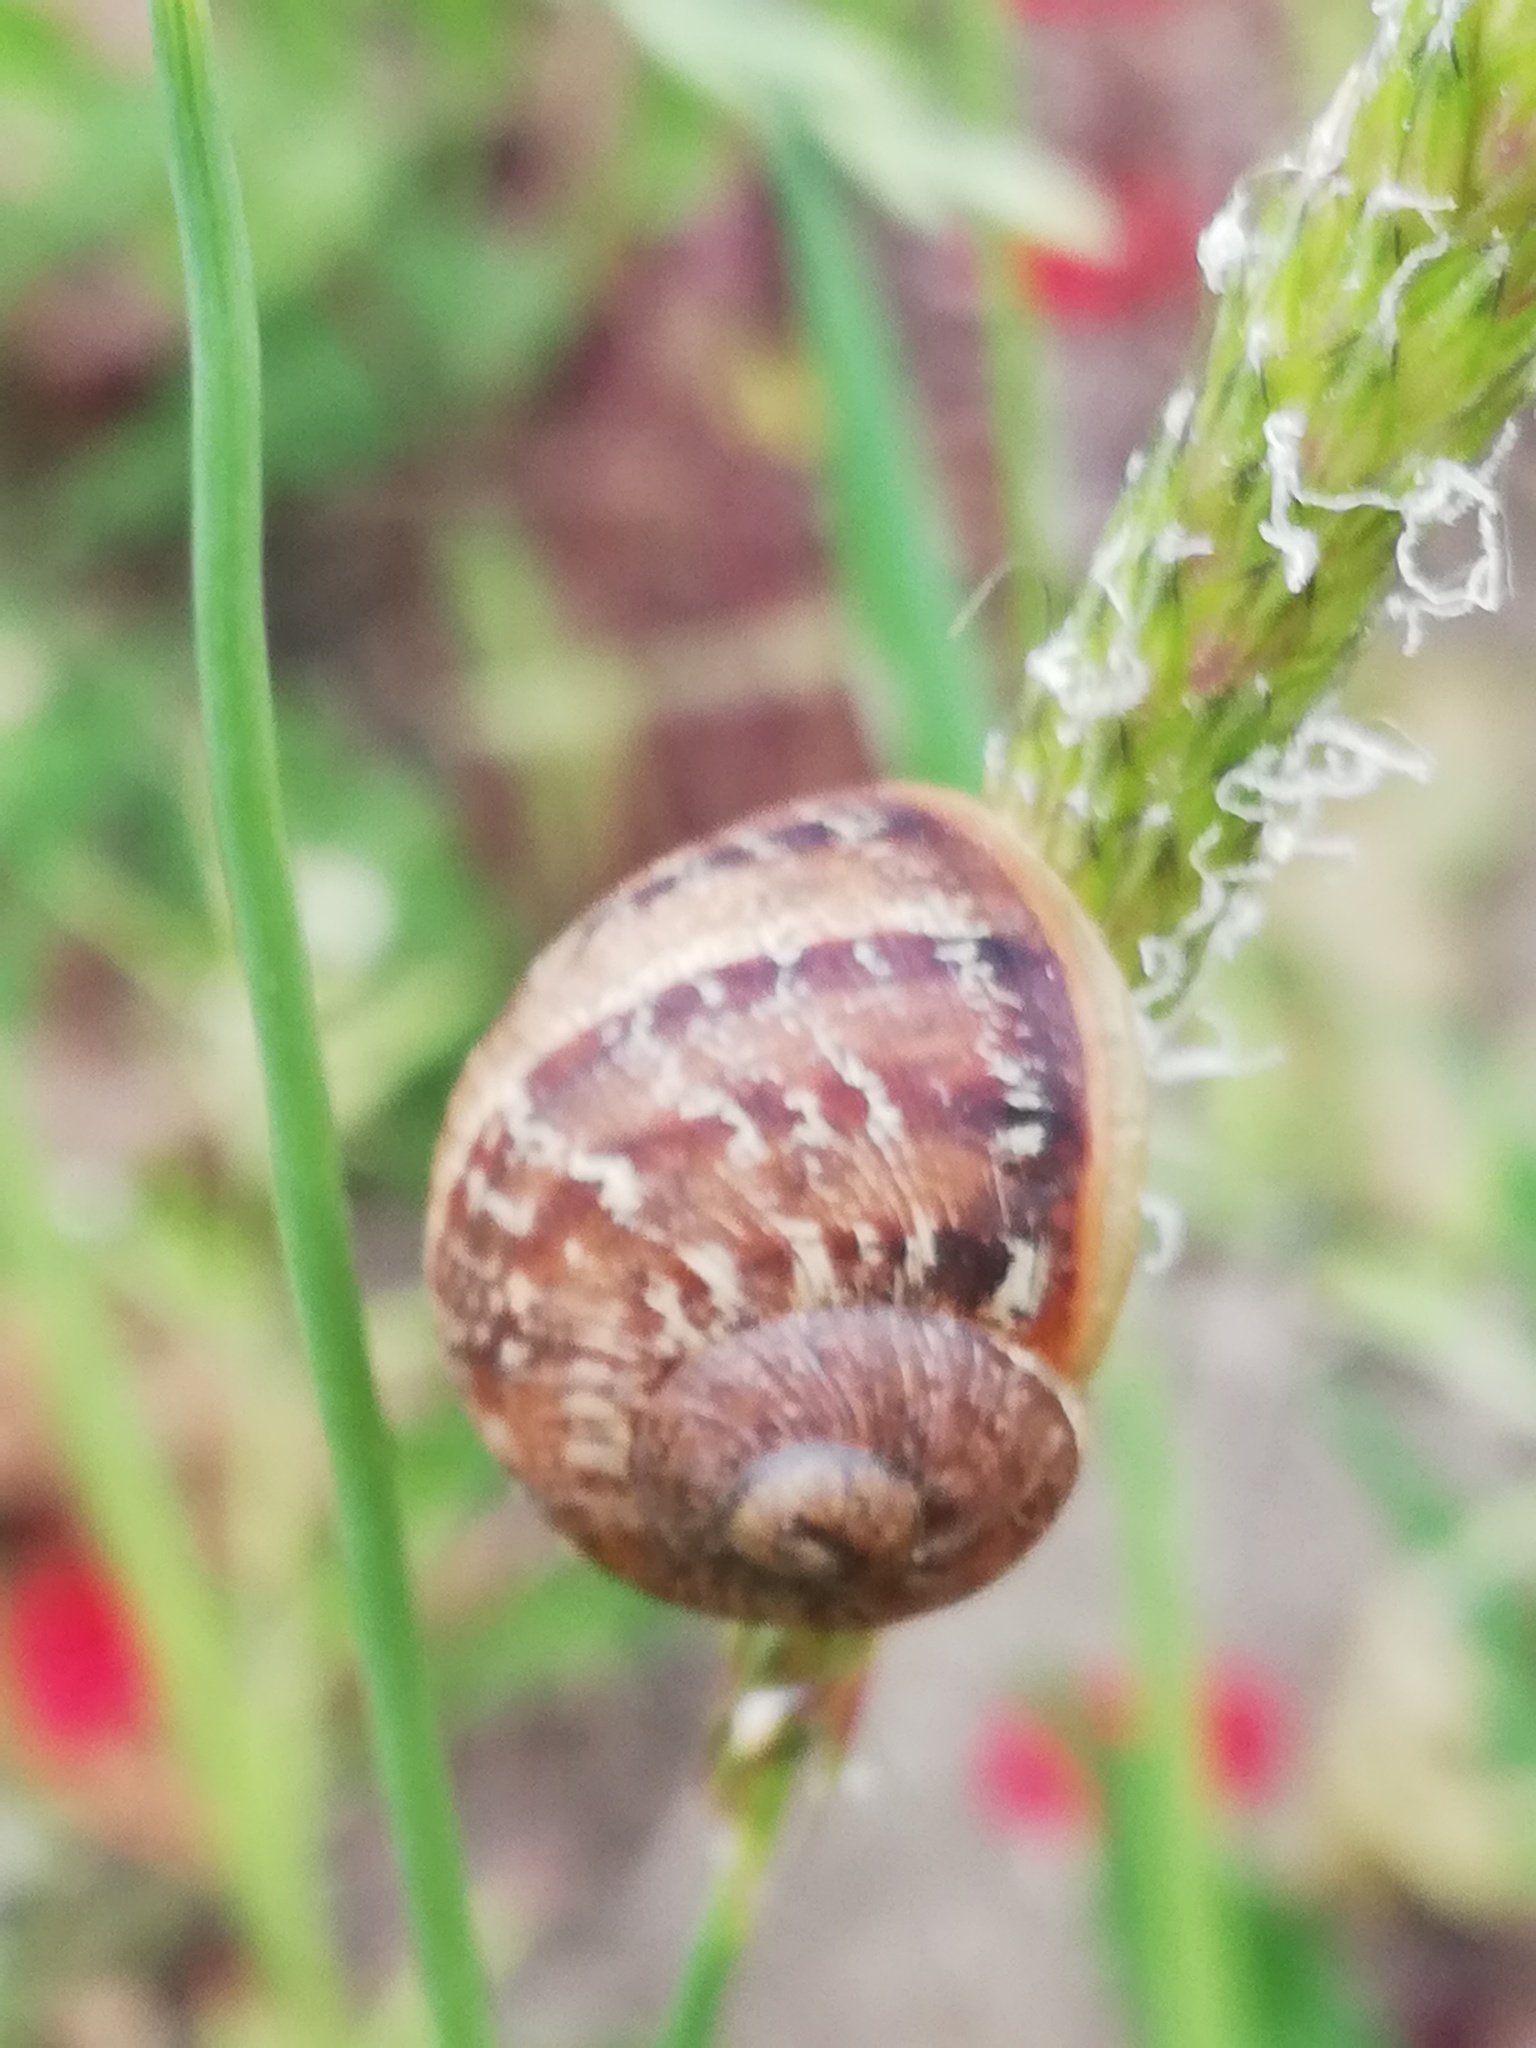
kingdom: Animalia
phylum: Mollusca
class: Gastropoda
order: Stylommatophora
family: Helicidae
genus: Cornu
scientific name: Cornu aspersum
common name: Brown garden snail
